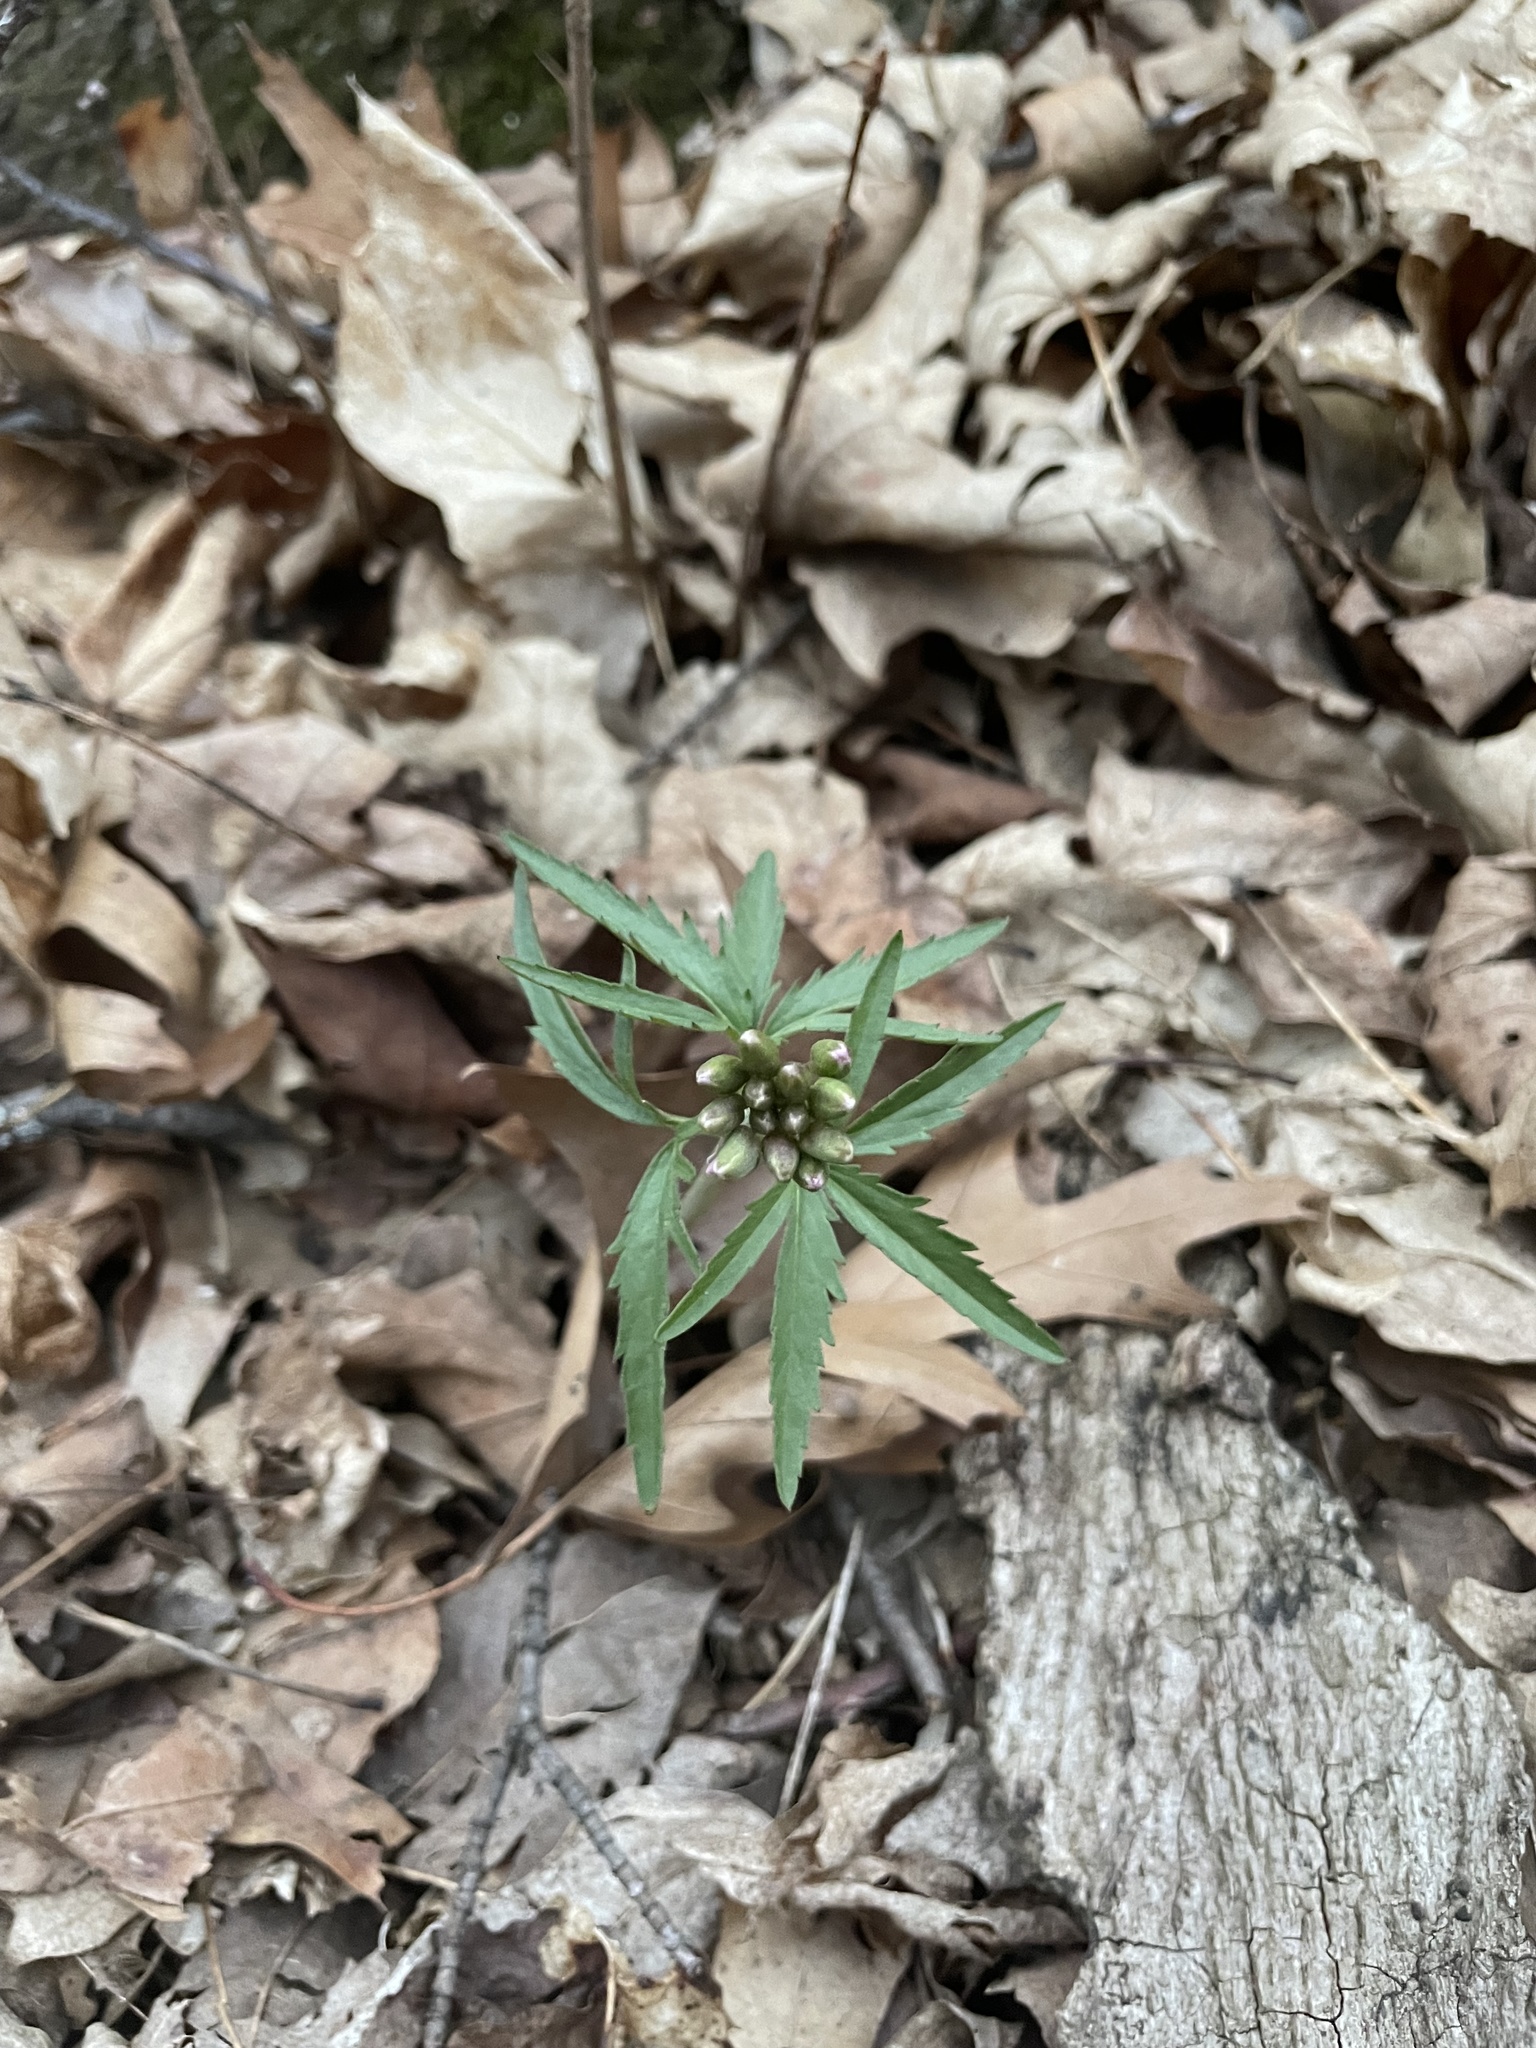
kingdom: Plantae
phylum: Tracheophyta
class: Magnoliopsida
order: Brassicales
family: Brassicaceae
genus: Cardamine
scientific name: Cardamine concatenata
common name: Cut-leaf toothcup
